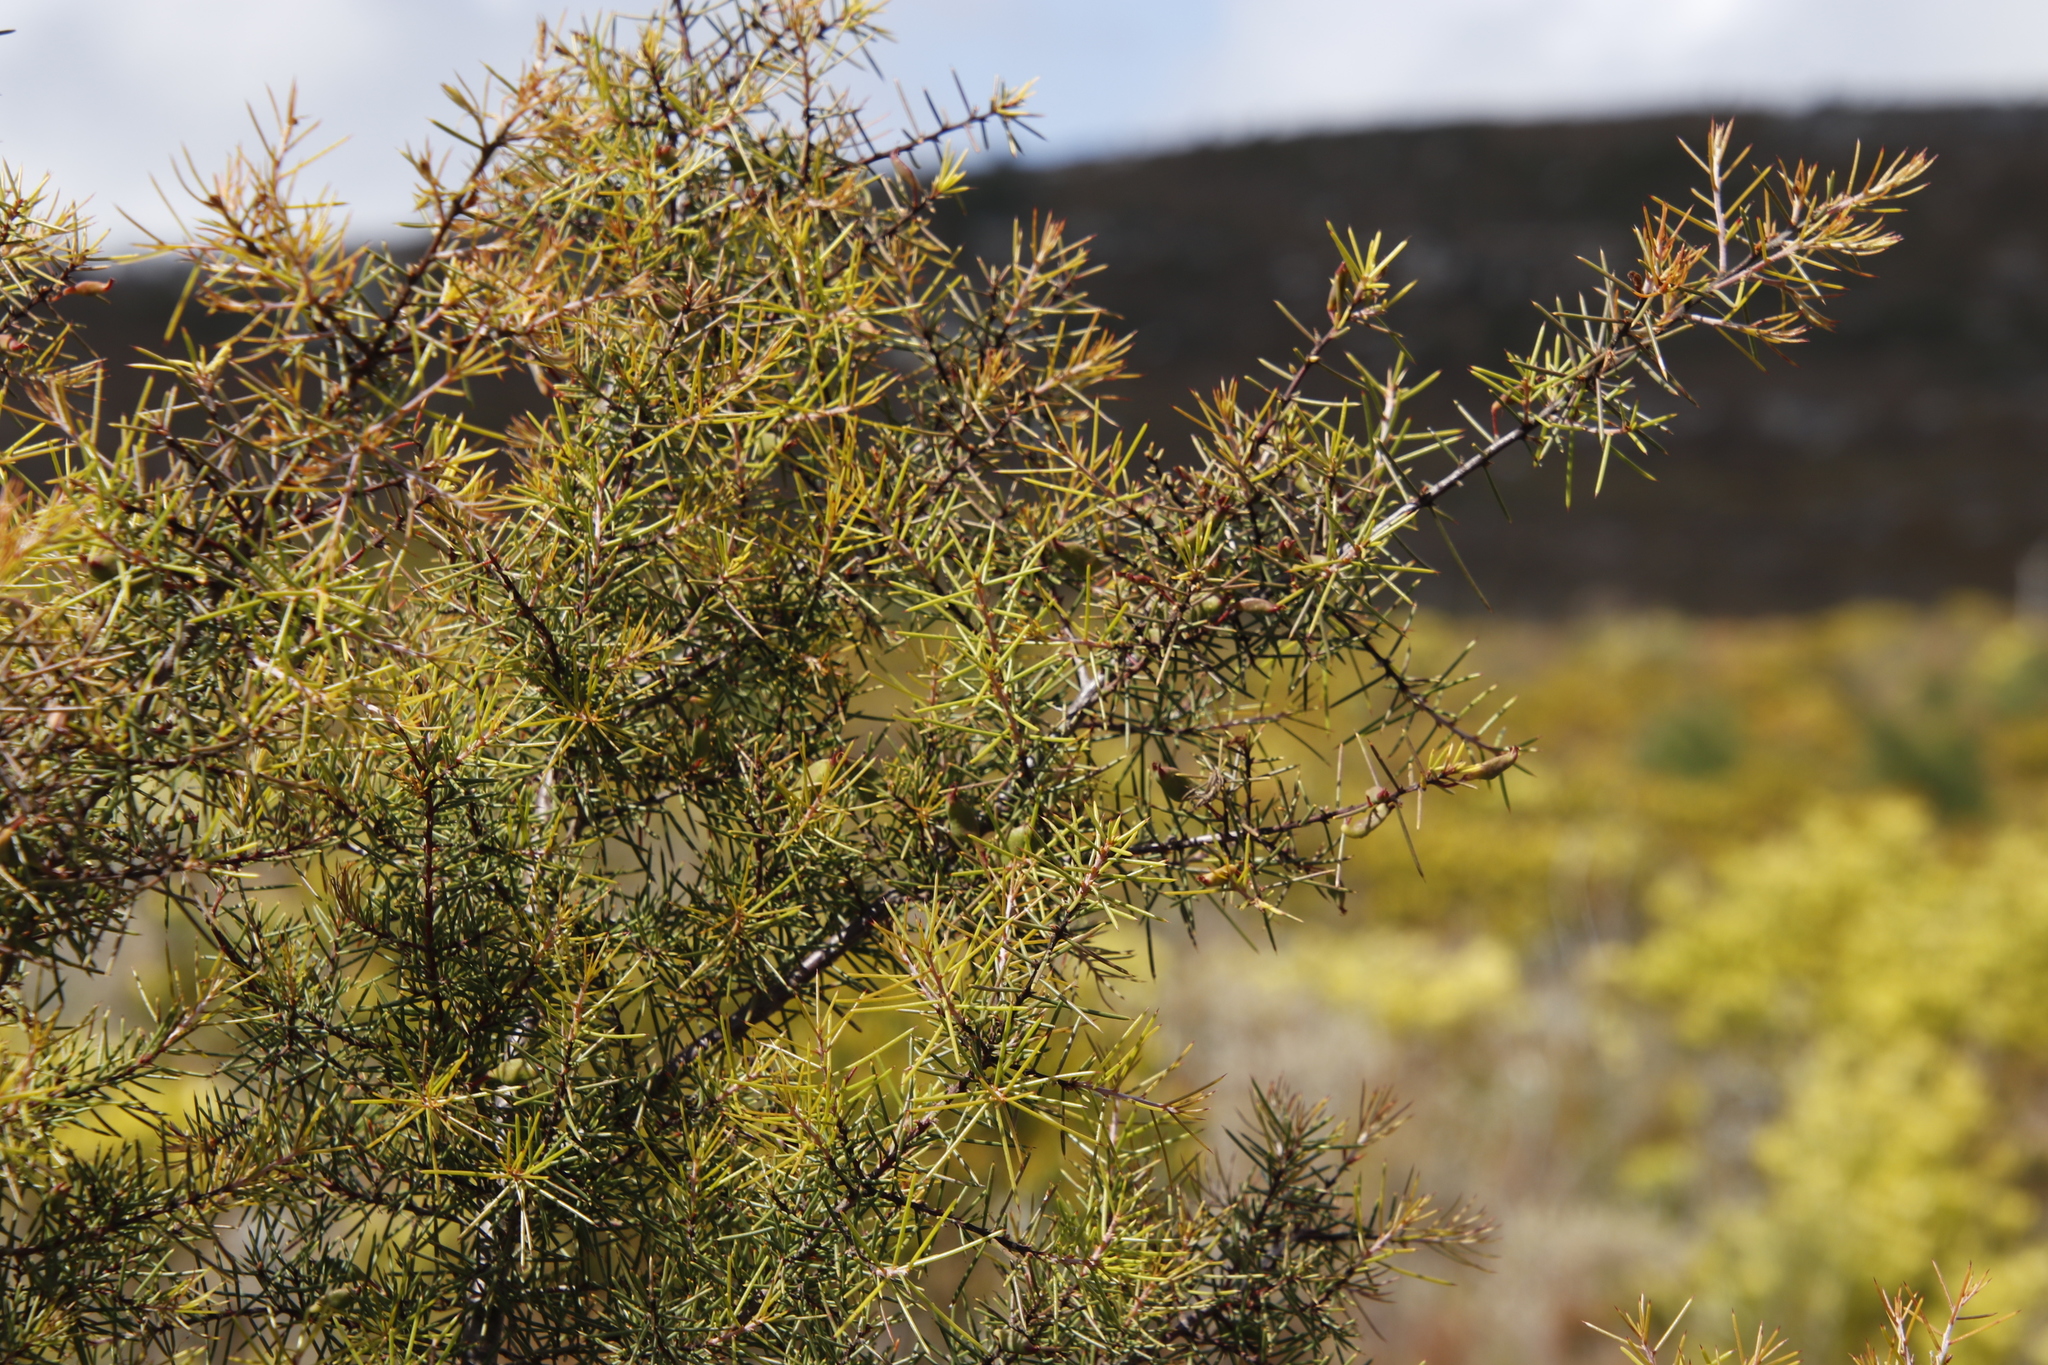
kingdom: Plantae
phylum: Tracheophyta
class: Magnoliopsida
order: Proteales
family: Proteaceae
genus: Hakea
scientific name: Hakea sericea
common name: Needle bush
